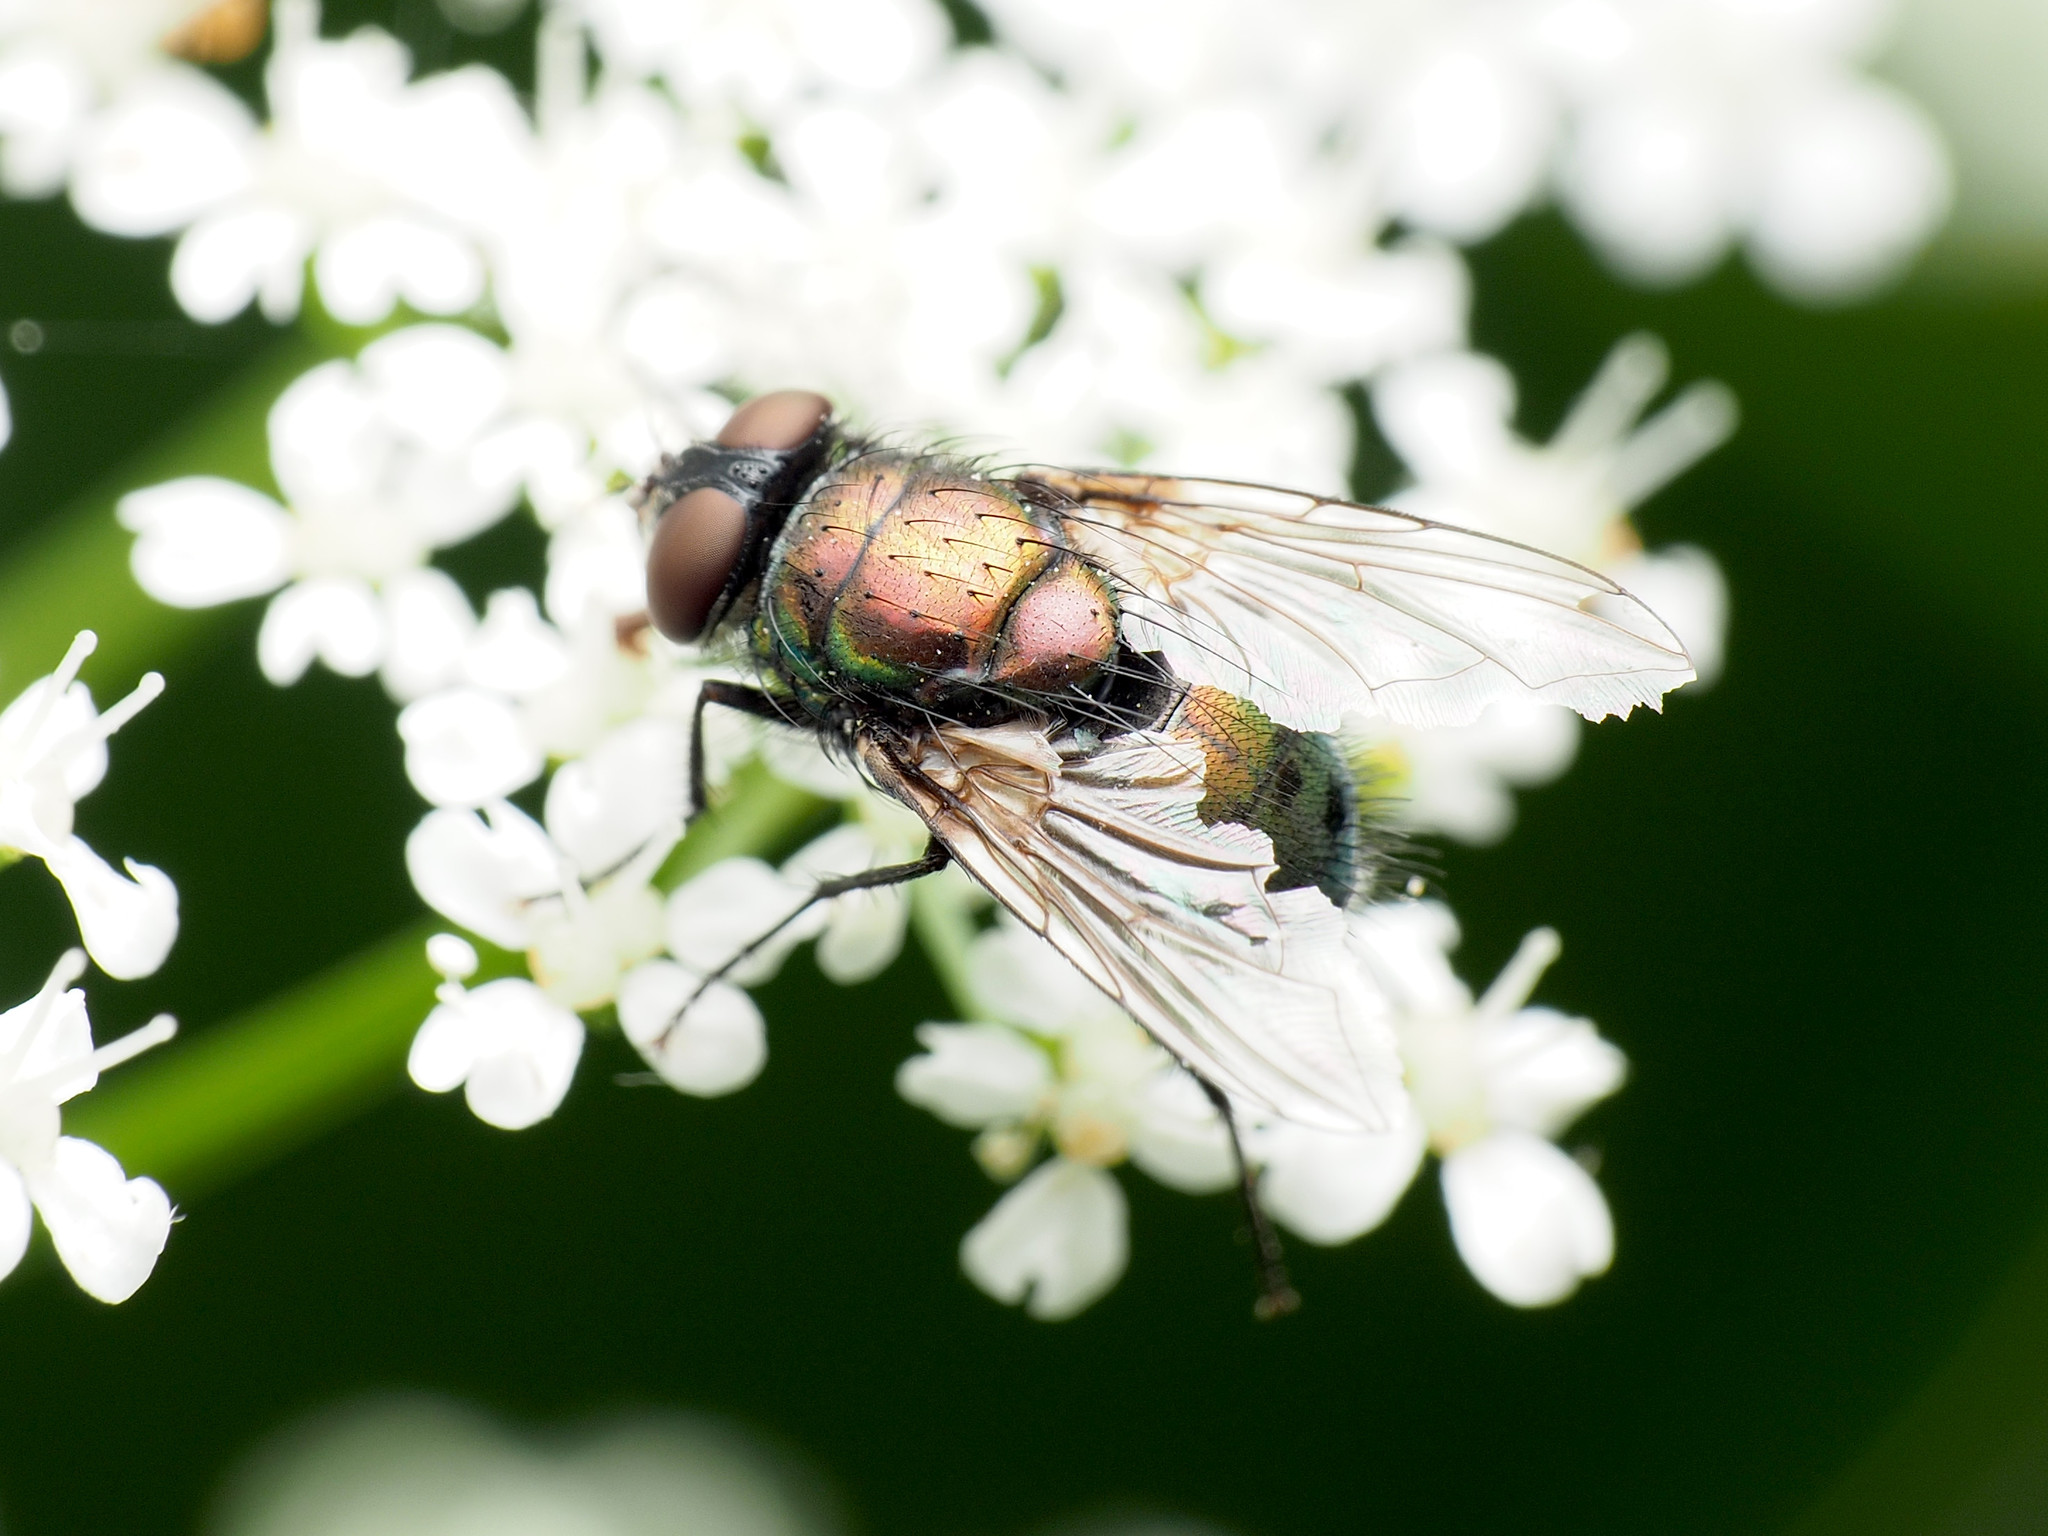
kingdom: Animalia
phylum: Arthropoda
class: Insecta
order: Diptera
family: Calliphoridae
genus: Lucilia
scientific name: Lucilia cuprina
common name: Sheep blow fly
